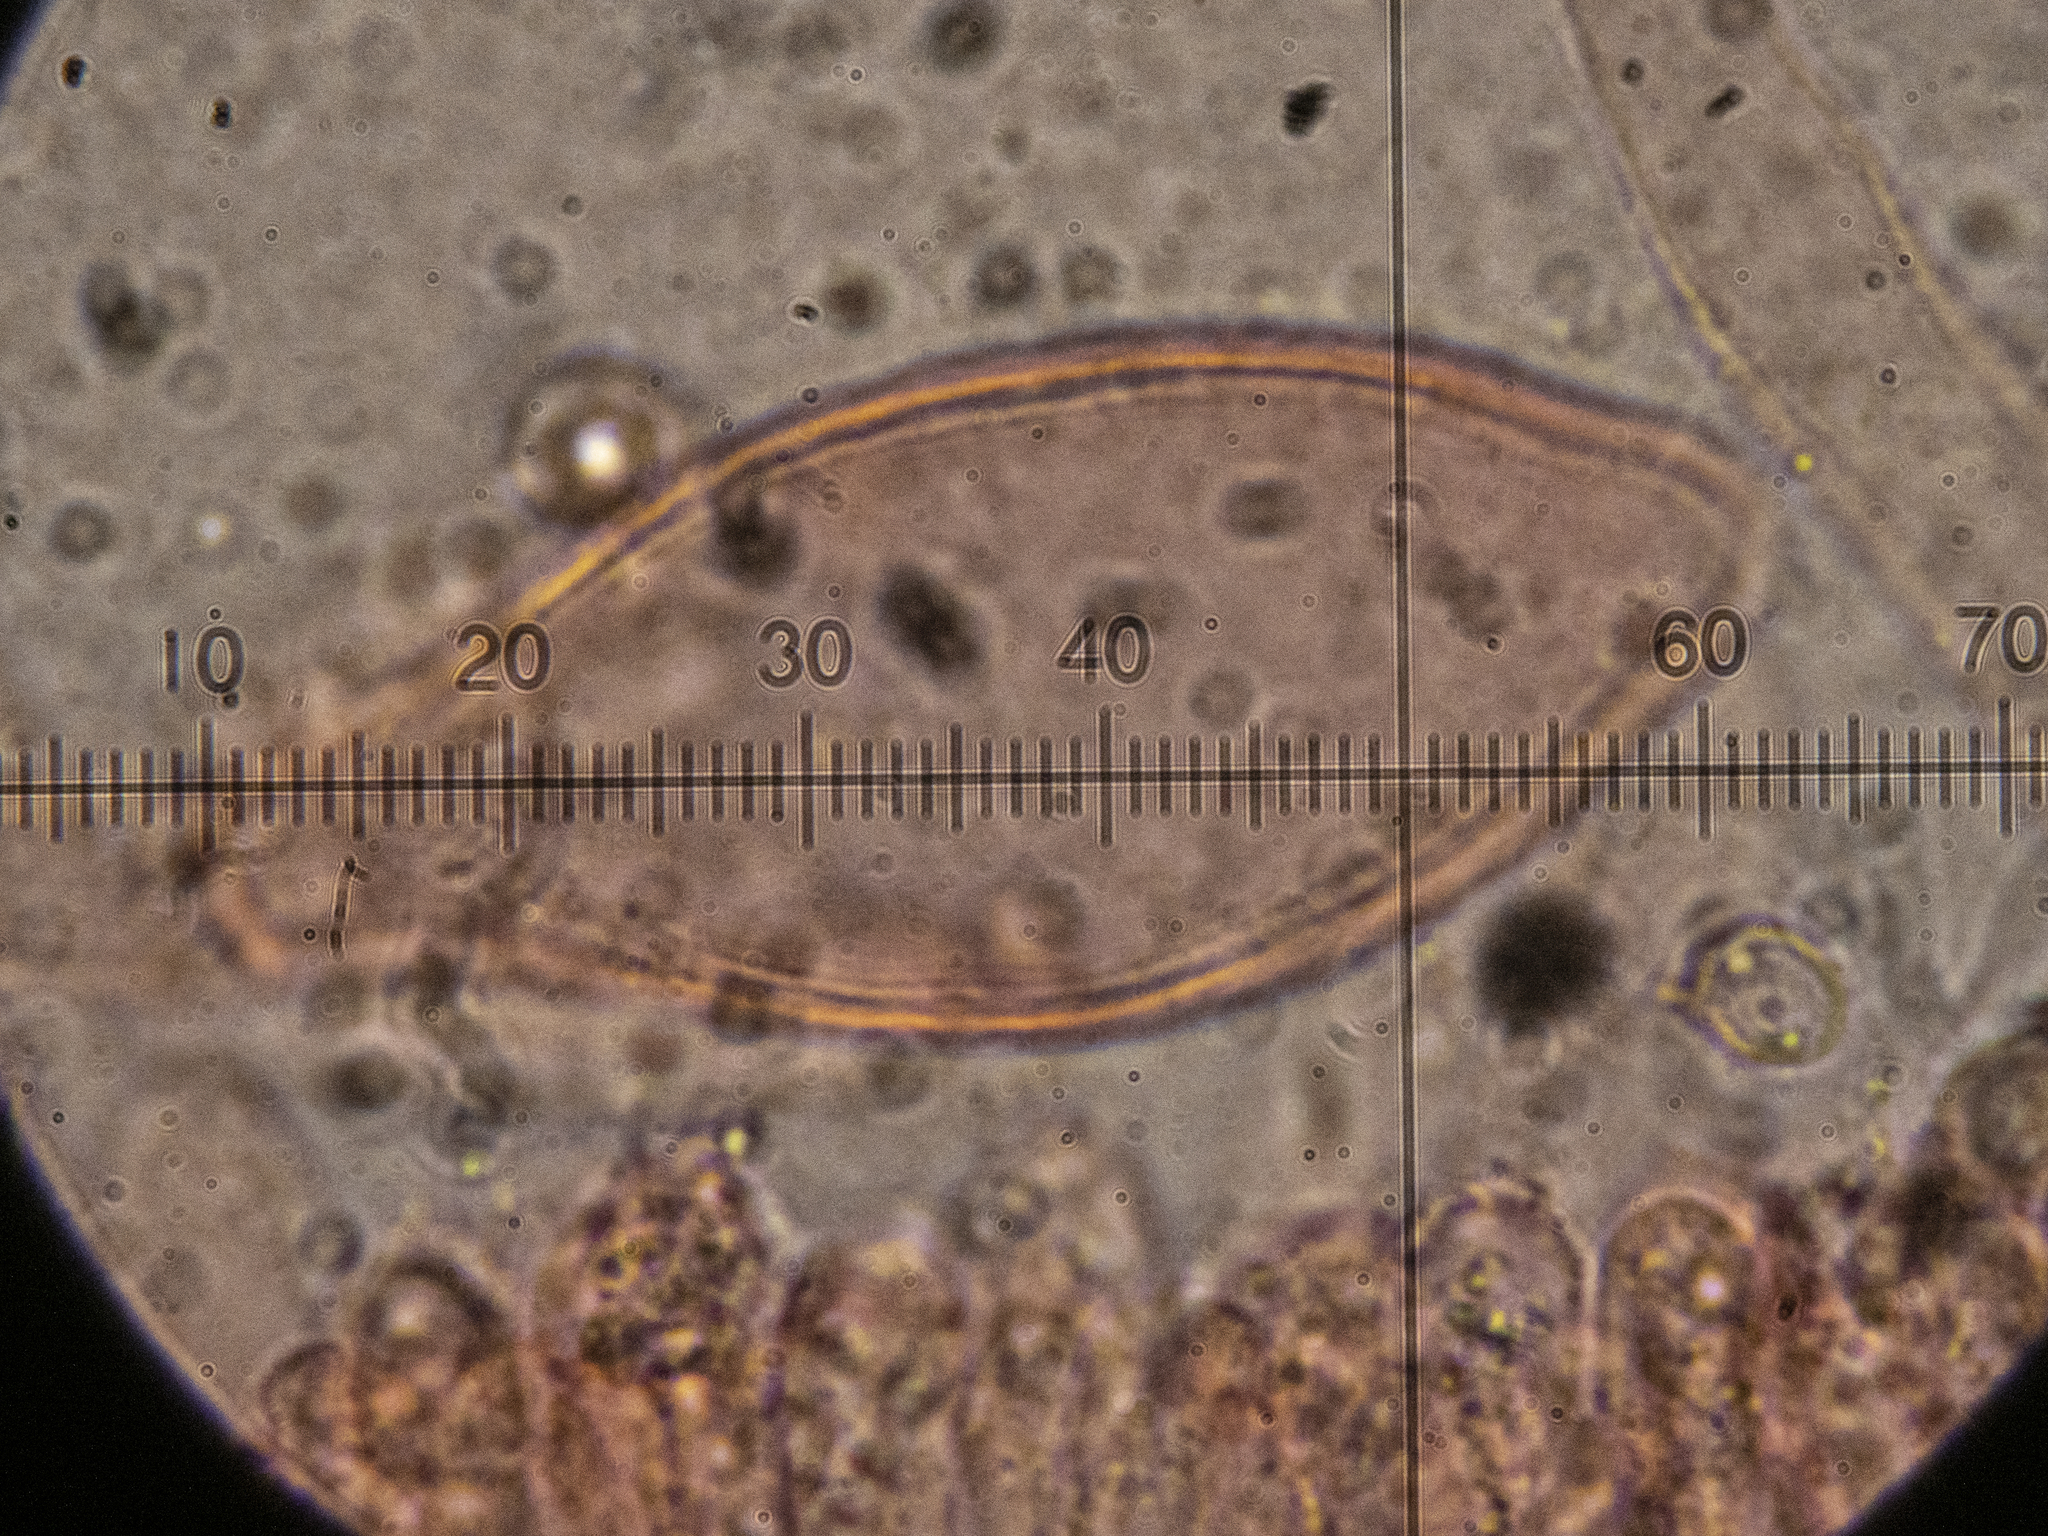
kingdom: Fungi
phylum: Basidiomycota
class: Agaricomycetes
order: Agaricales
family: Pluteaceae
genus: Pluteus
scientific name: Pluteus aurantiorugosus
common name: Flame shield
